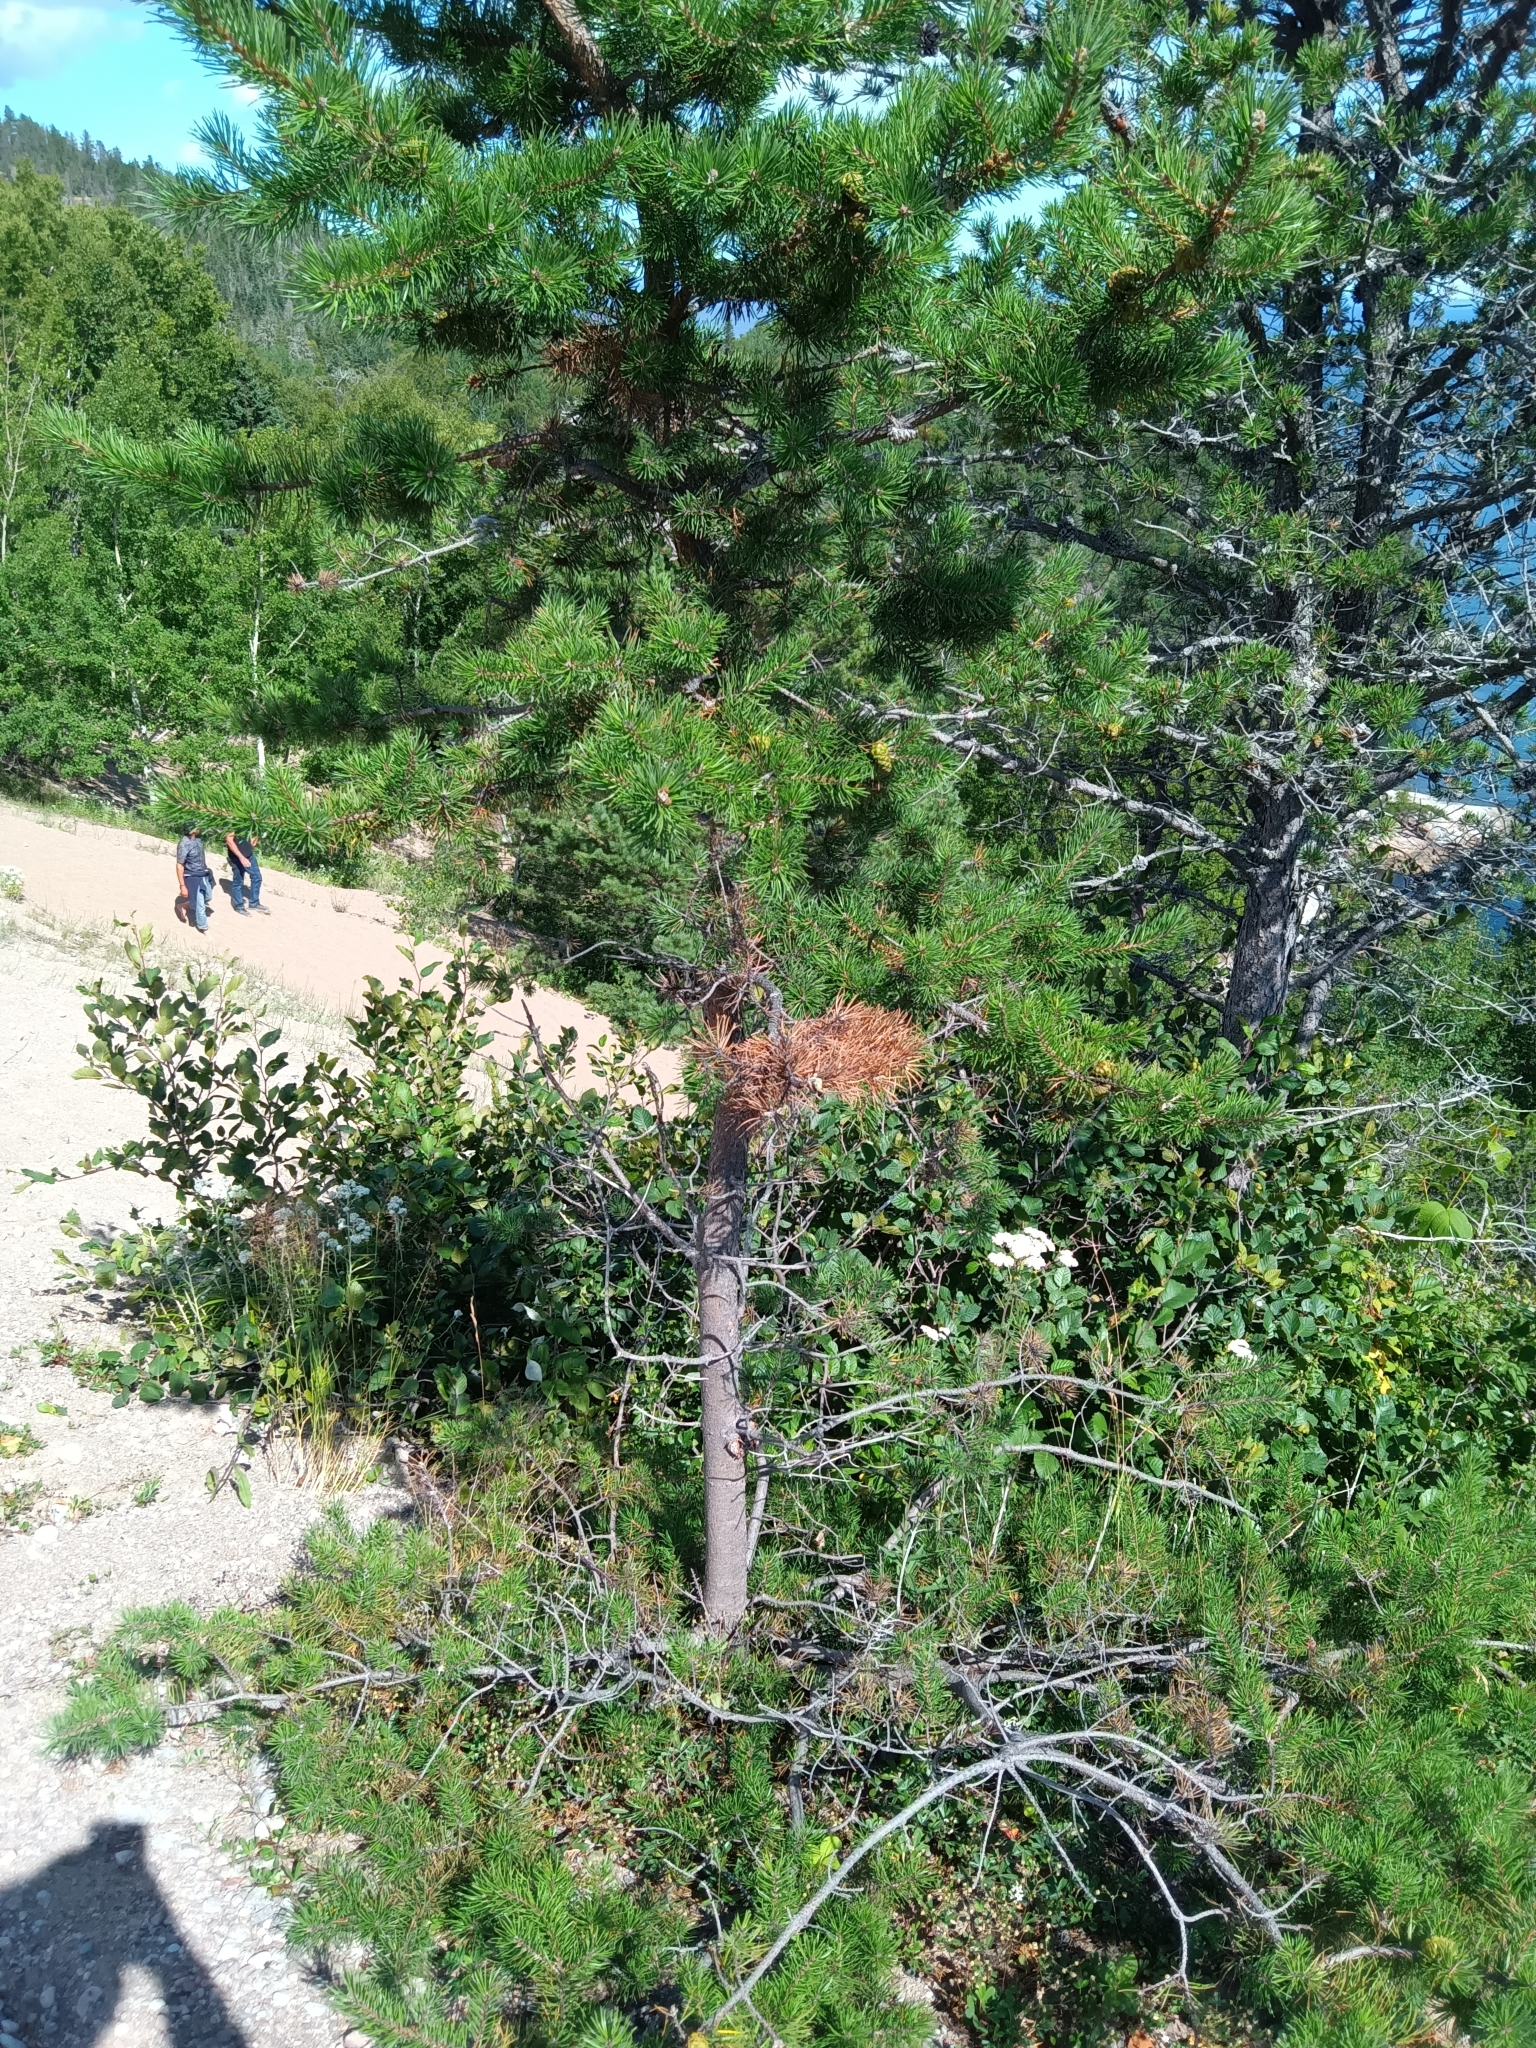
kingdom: Plantae
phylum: Tracheophyta
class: Pinopsida
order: Pinales
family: Pinaceae
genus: Pinus
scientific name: Pinus banksiana
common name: Jack pine
